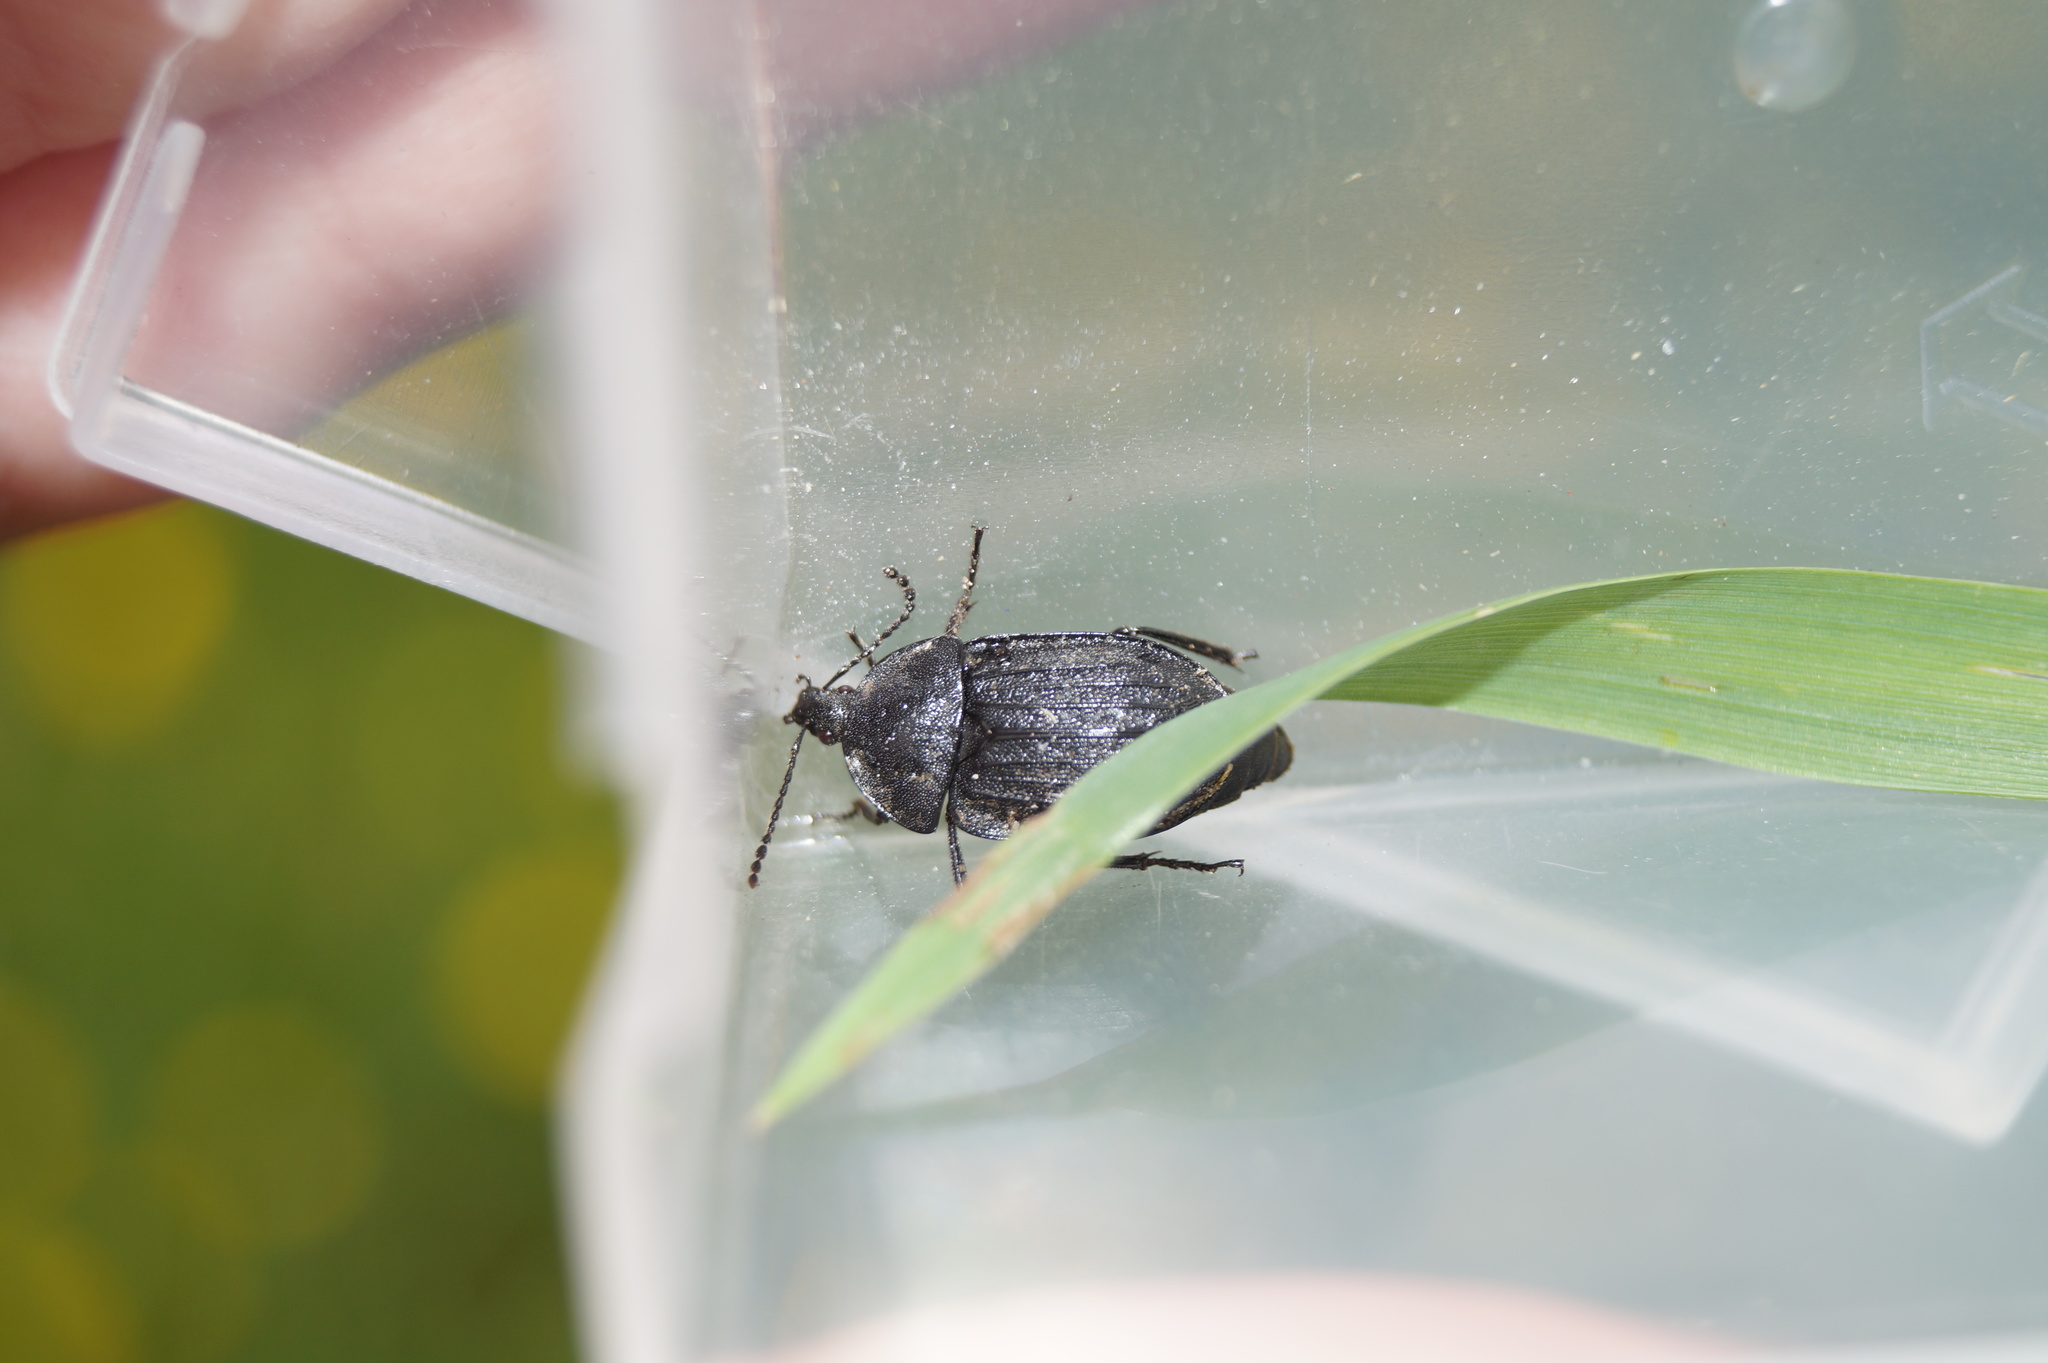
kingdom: Animalia
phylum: Arthropoda
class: Insecta
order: Coleoptera
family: Staphylinidae
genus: Silpha
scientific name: Silpha atrata
